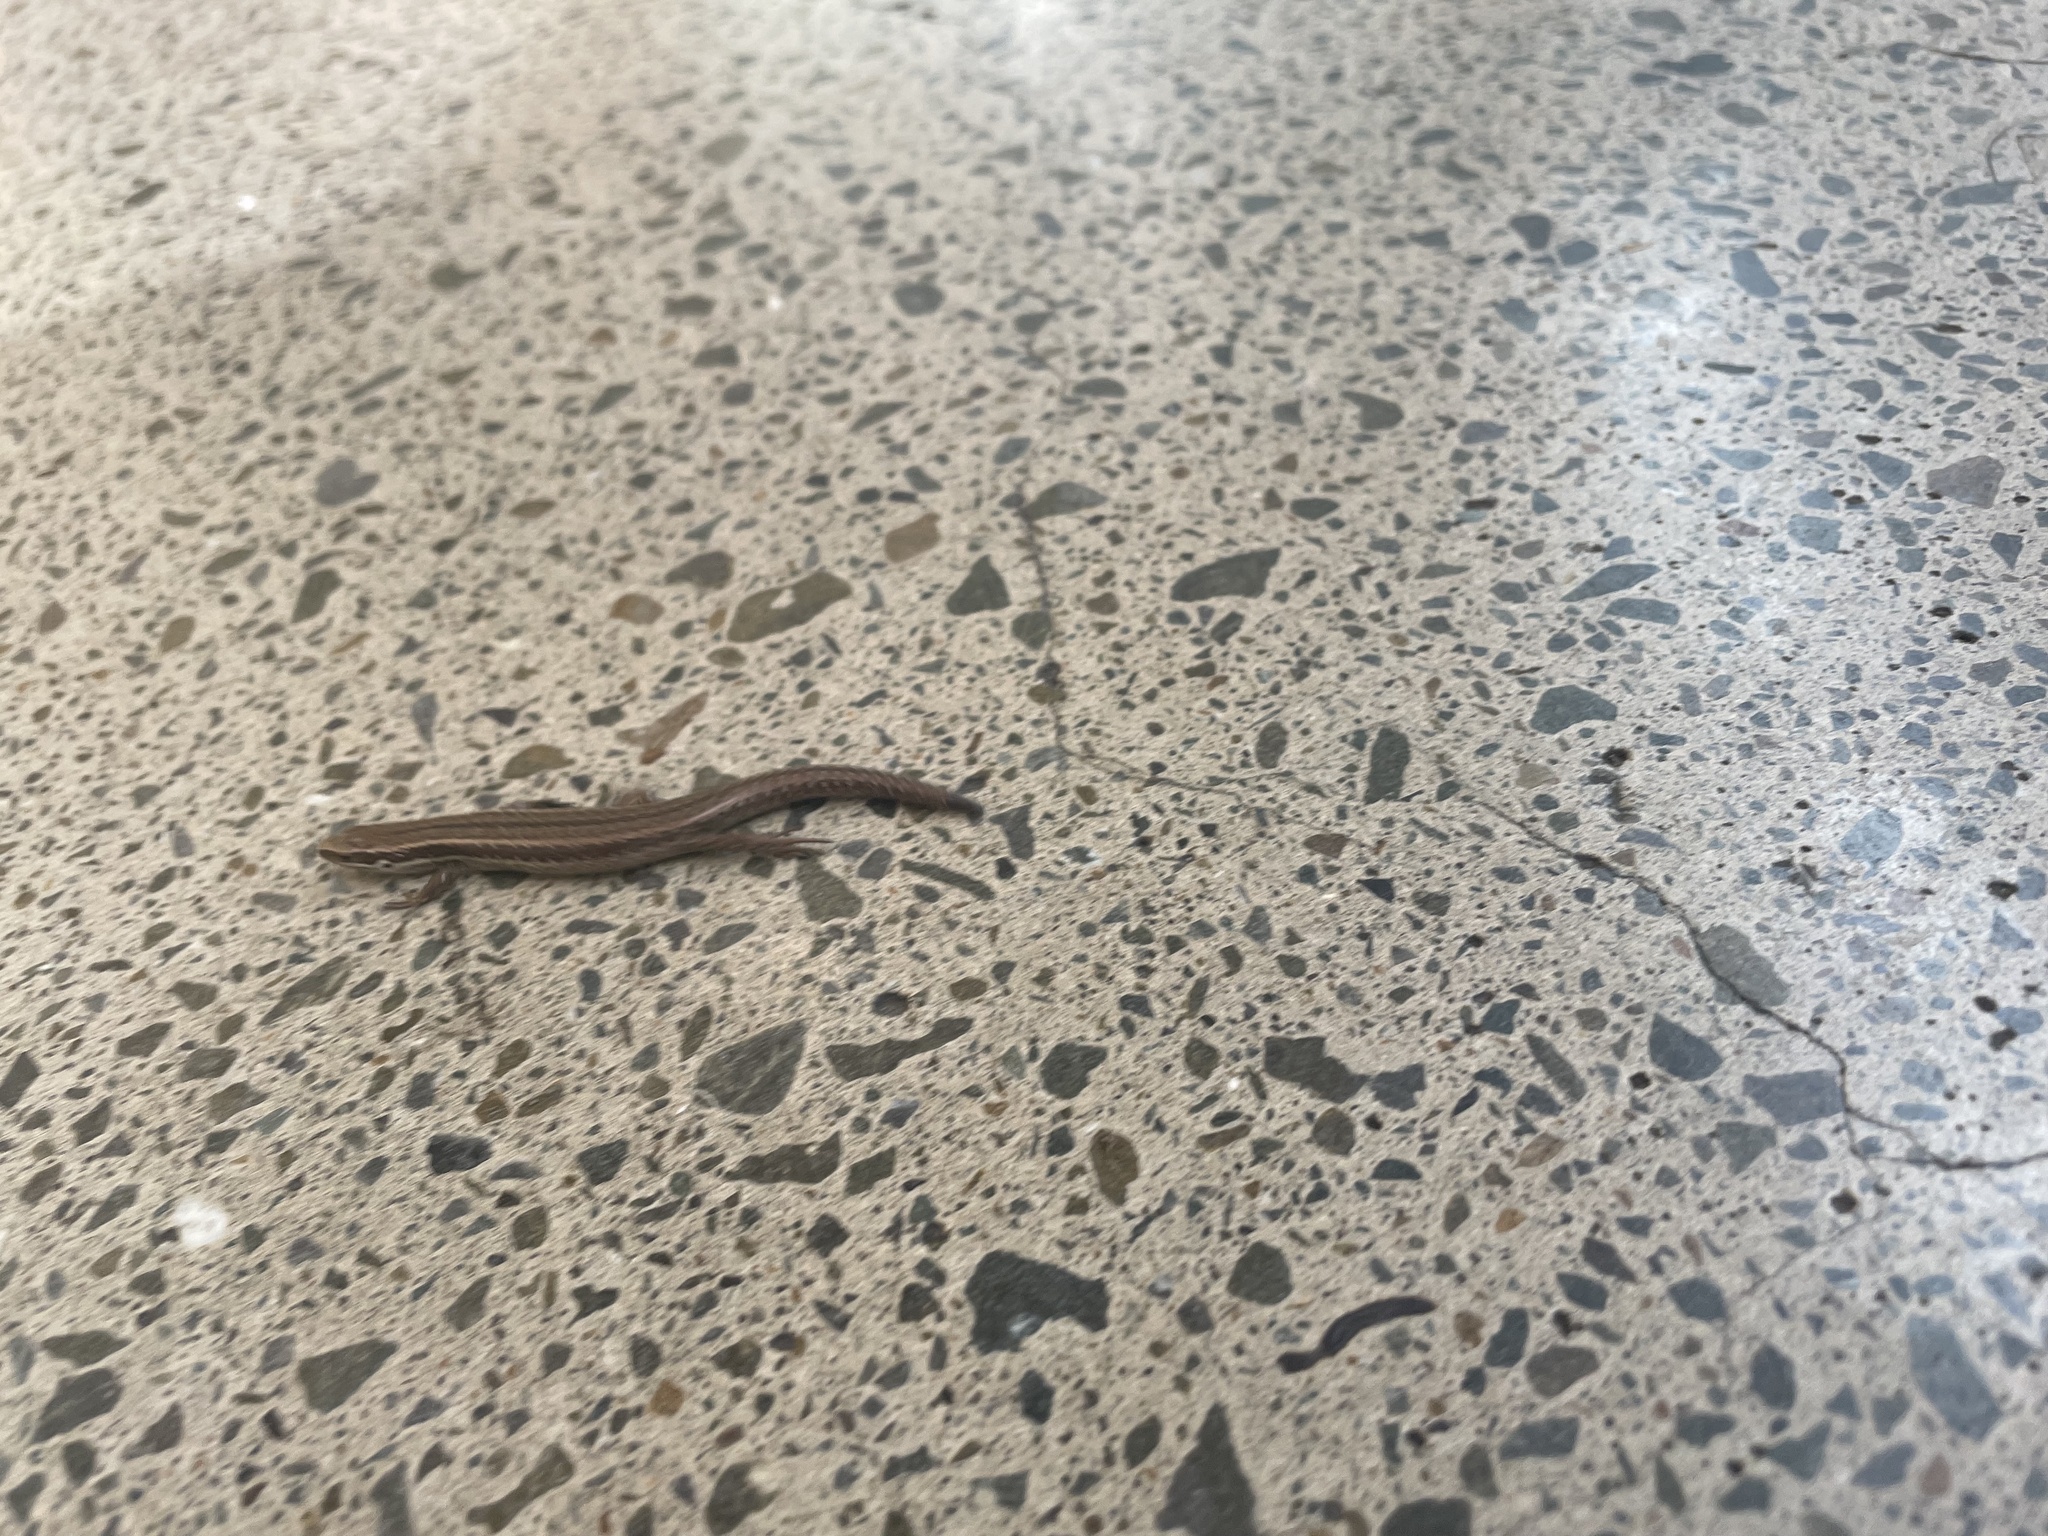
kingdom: Animalia
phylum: Chordata
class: Squamata
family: Scincidae
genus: Oligosoma
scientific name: Oligosoma polychroma
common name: Common new zealand skink
